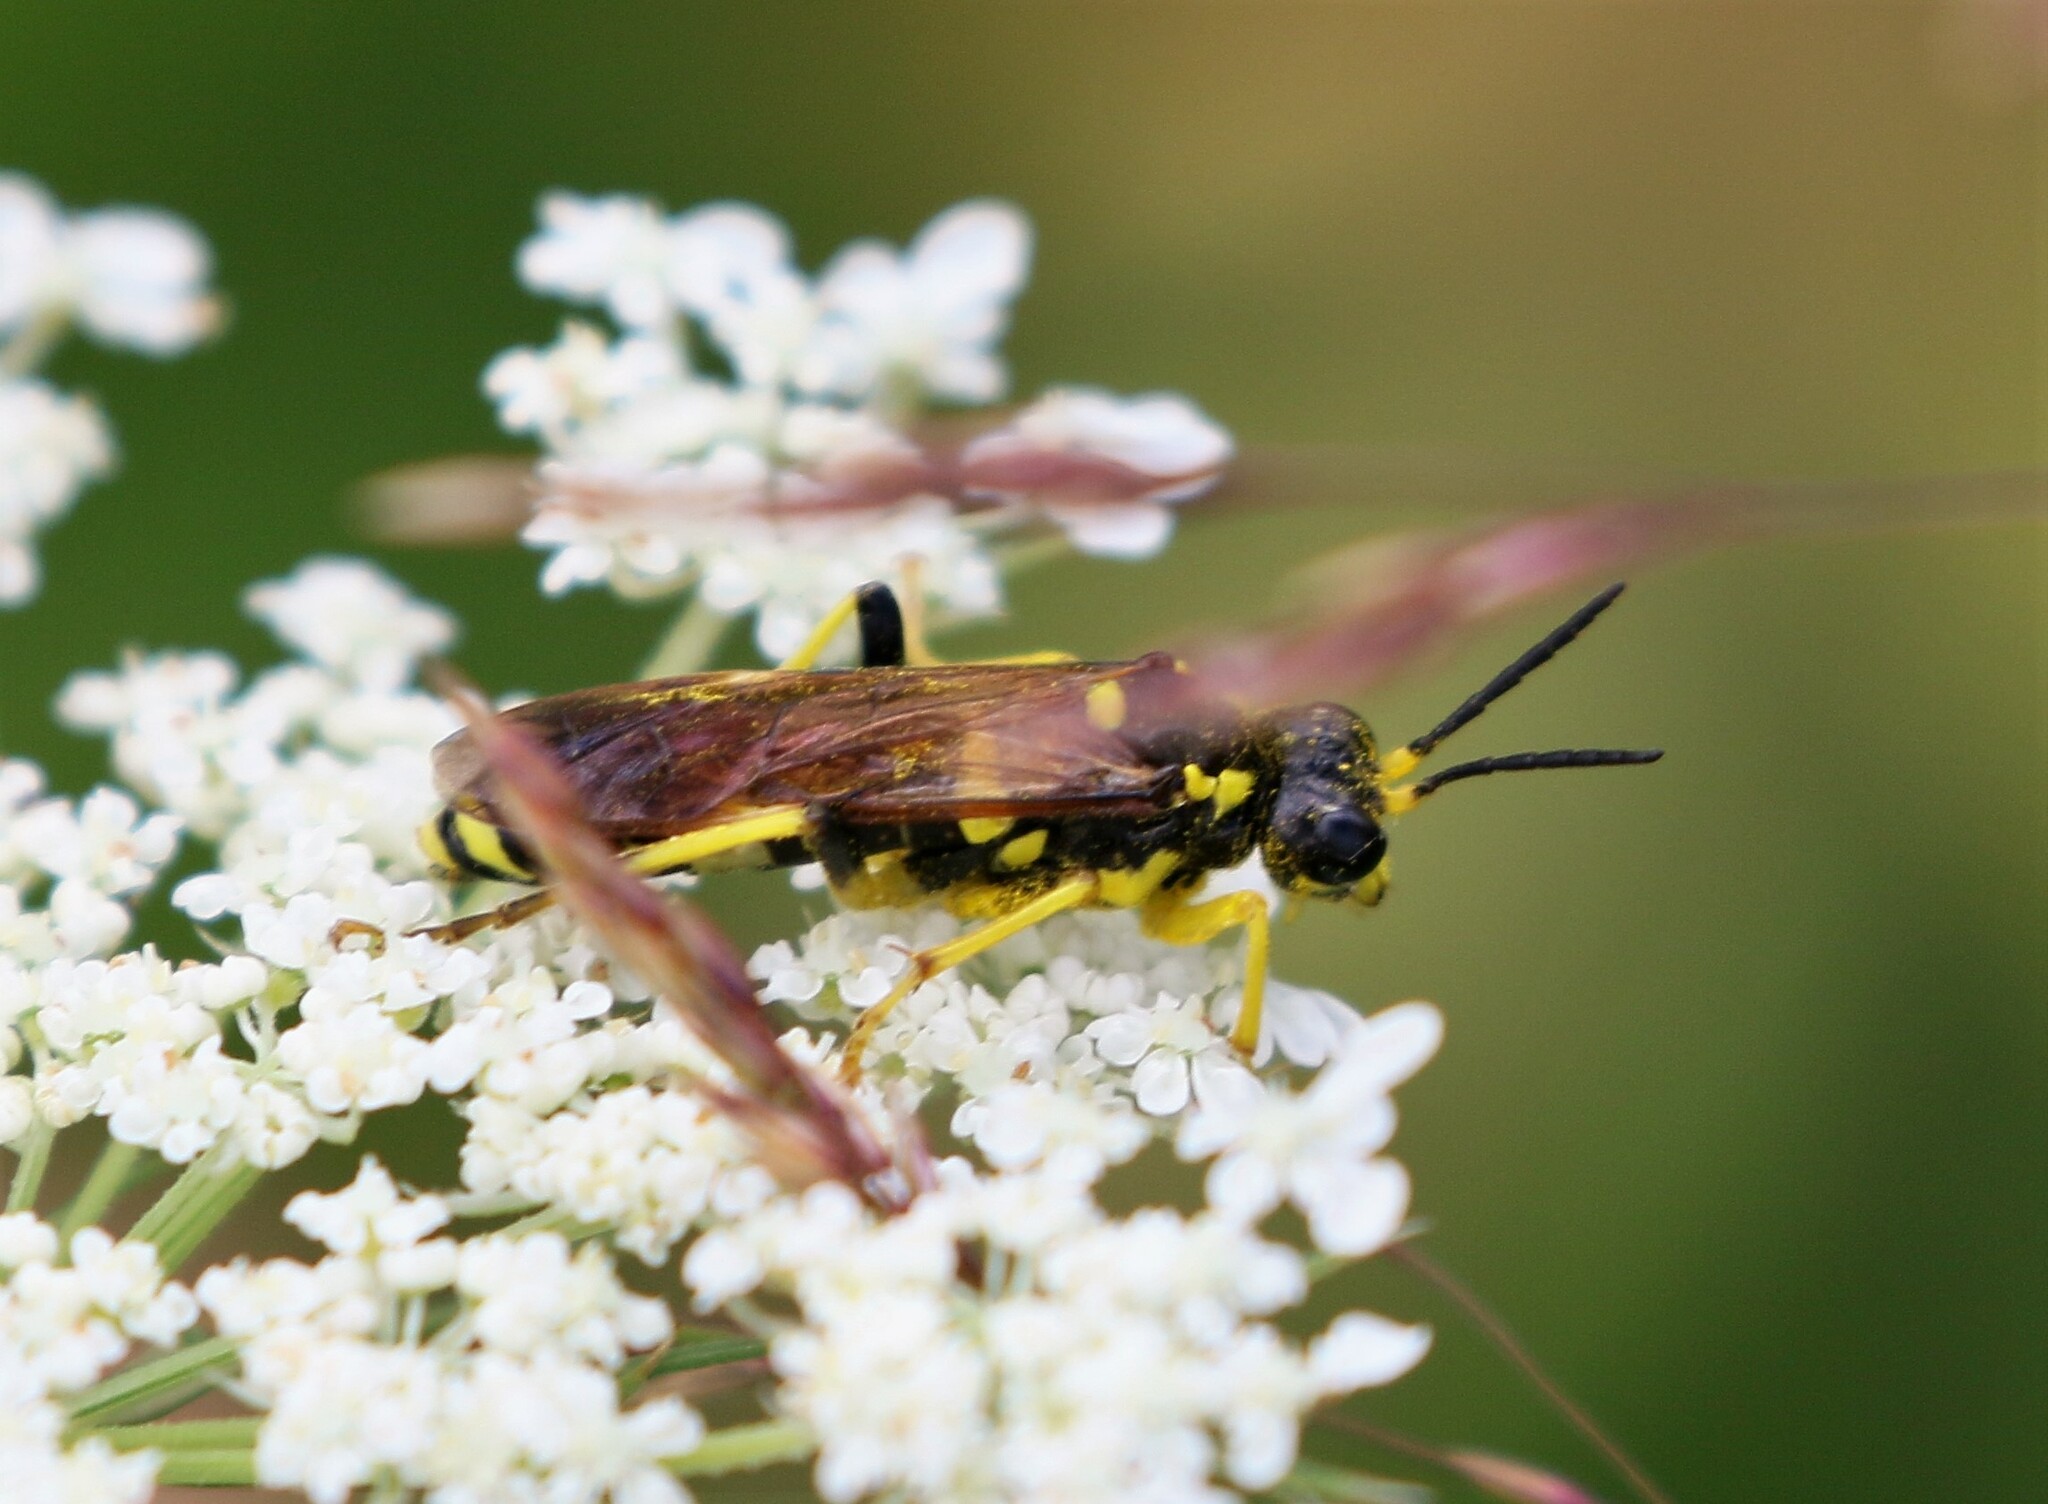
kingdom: Animalia
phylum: Arthropoda
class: Insecta
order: Hymenoptera
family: Tenthredinidae
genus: Tenthredo
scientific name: Tenthredo
